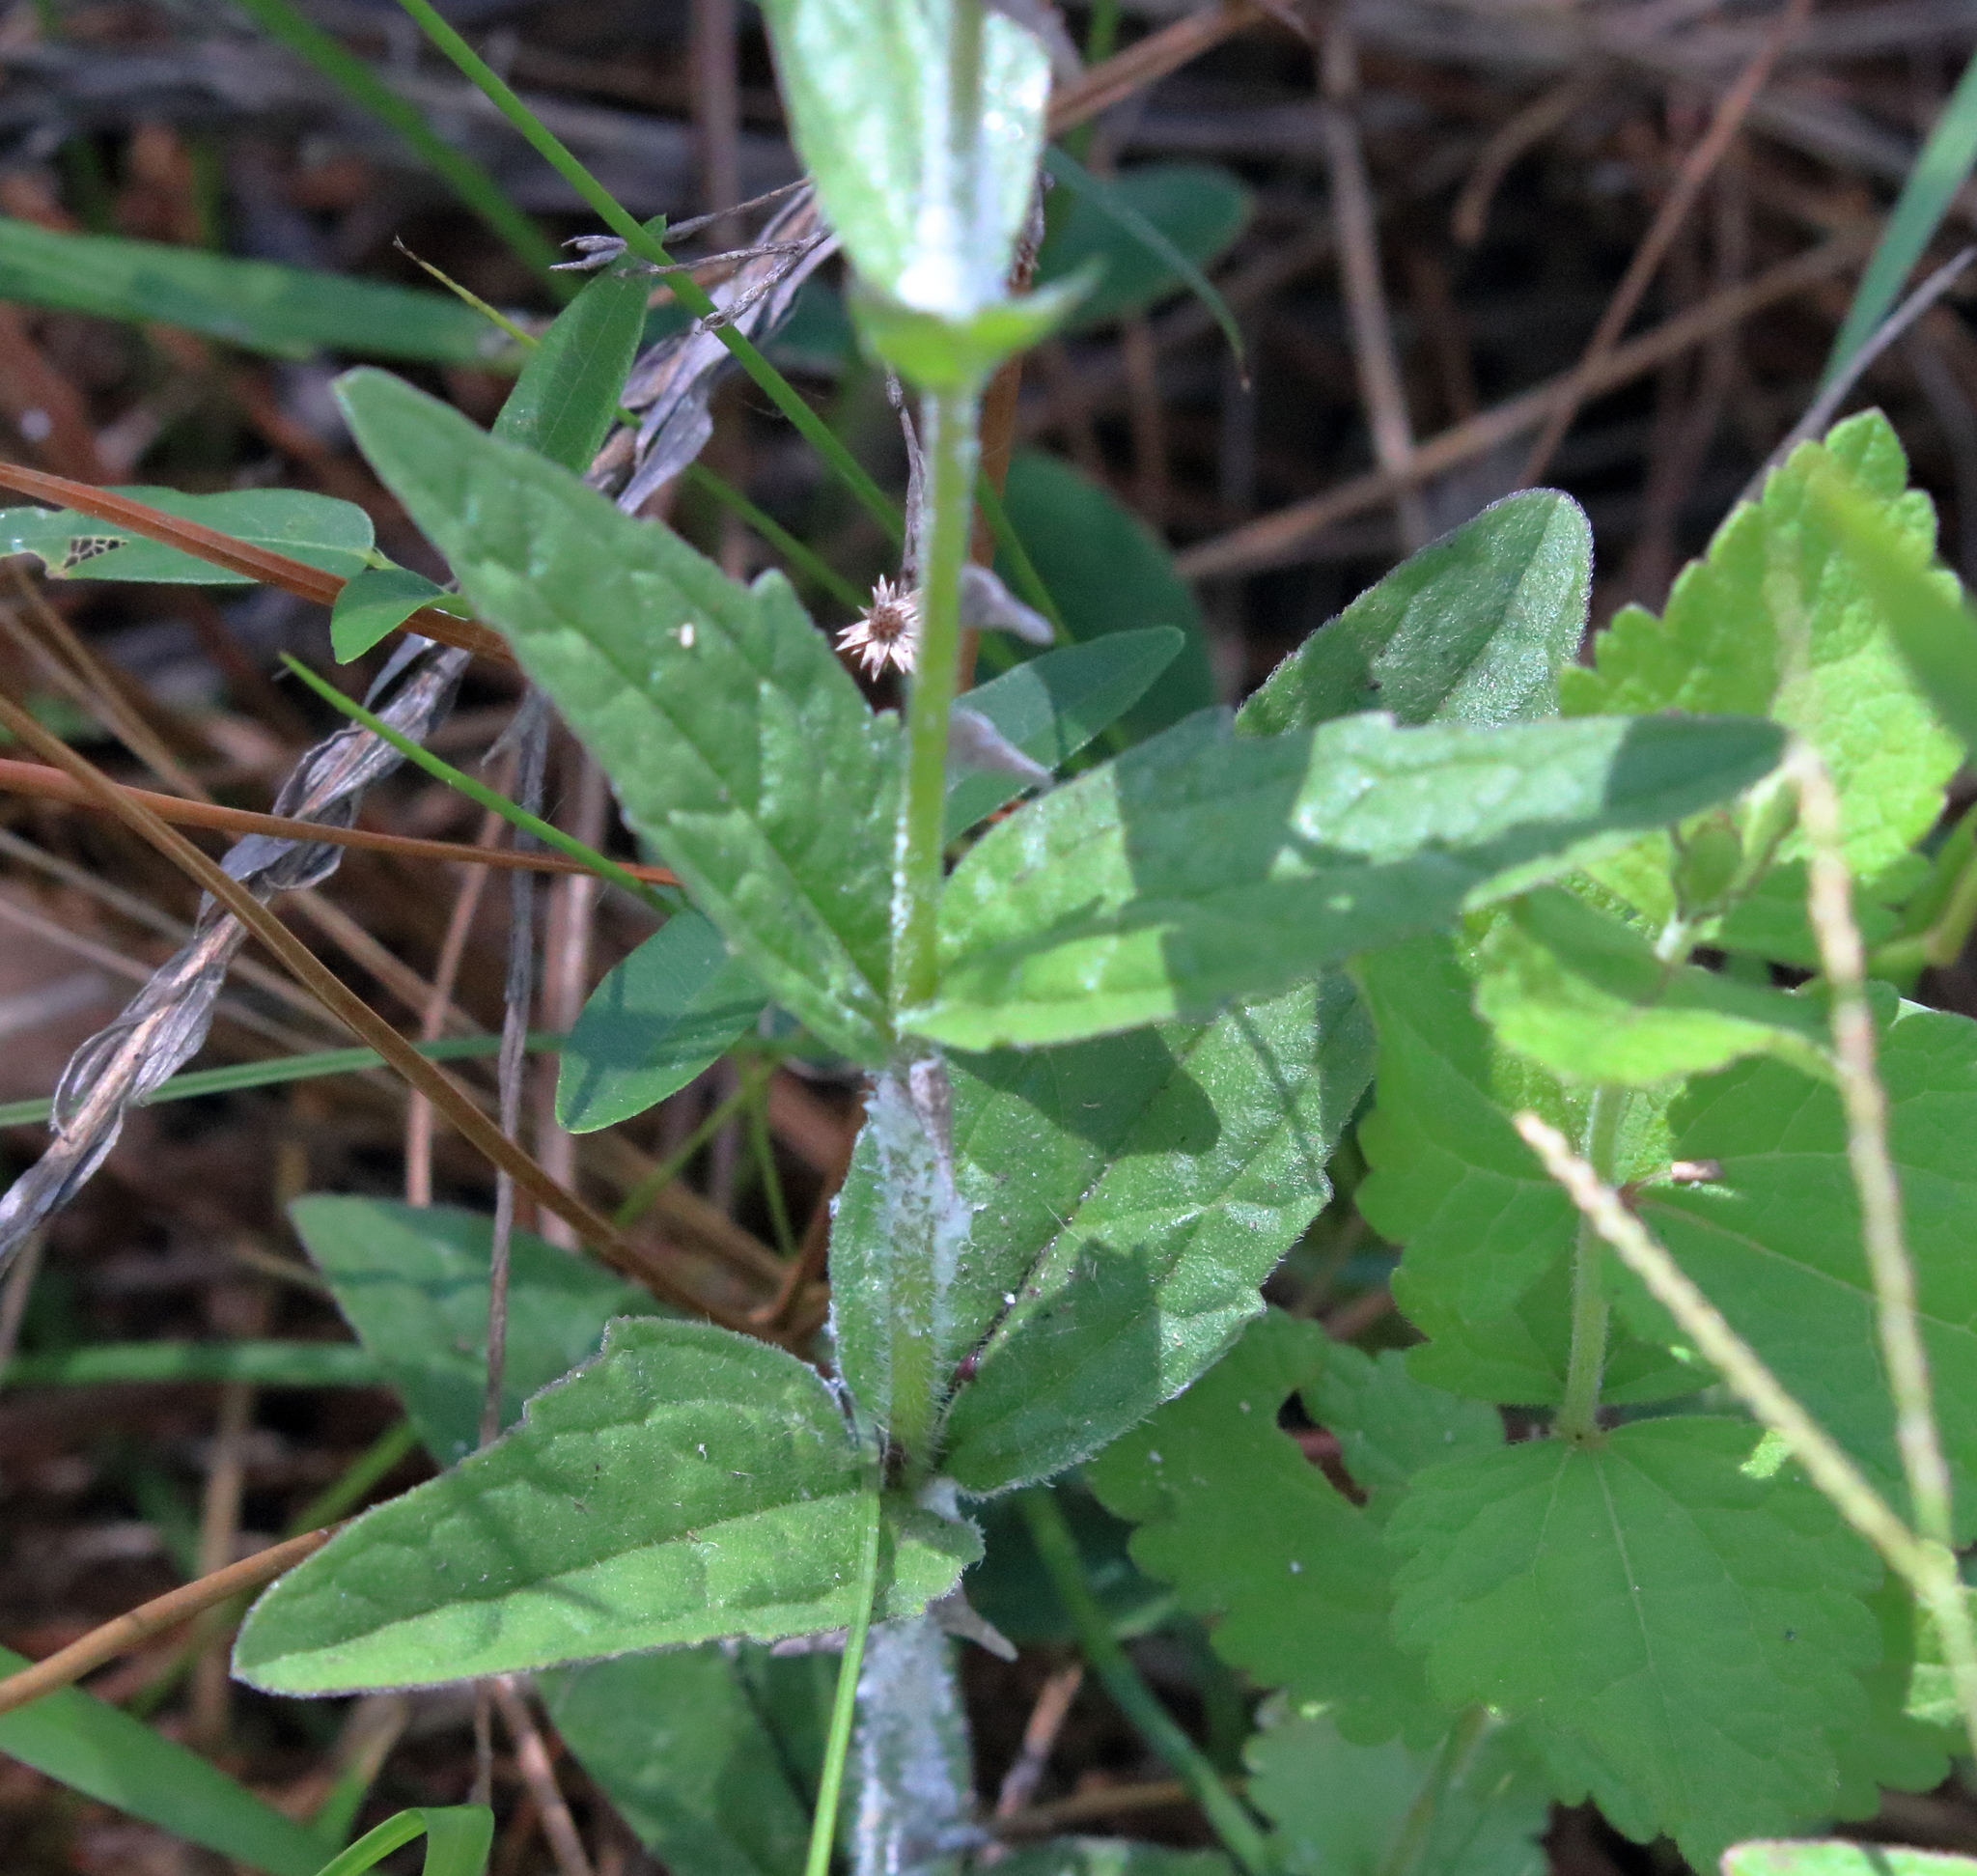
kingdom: Plantae
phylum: Tracheophyta
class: Magnoliopsida
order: Lamiales
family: Orobanchaceae
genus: Buchnera
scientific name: Buchnera floridana
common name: Florida bluehearts
